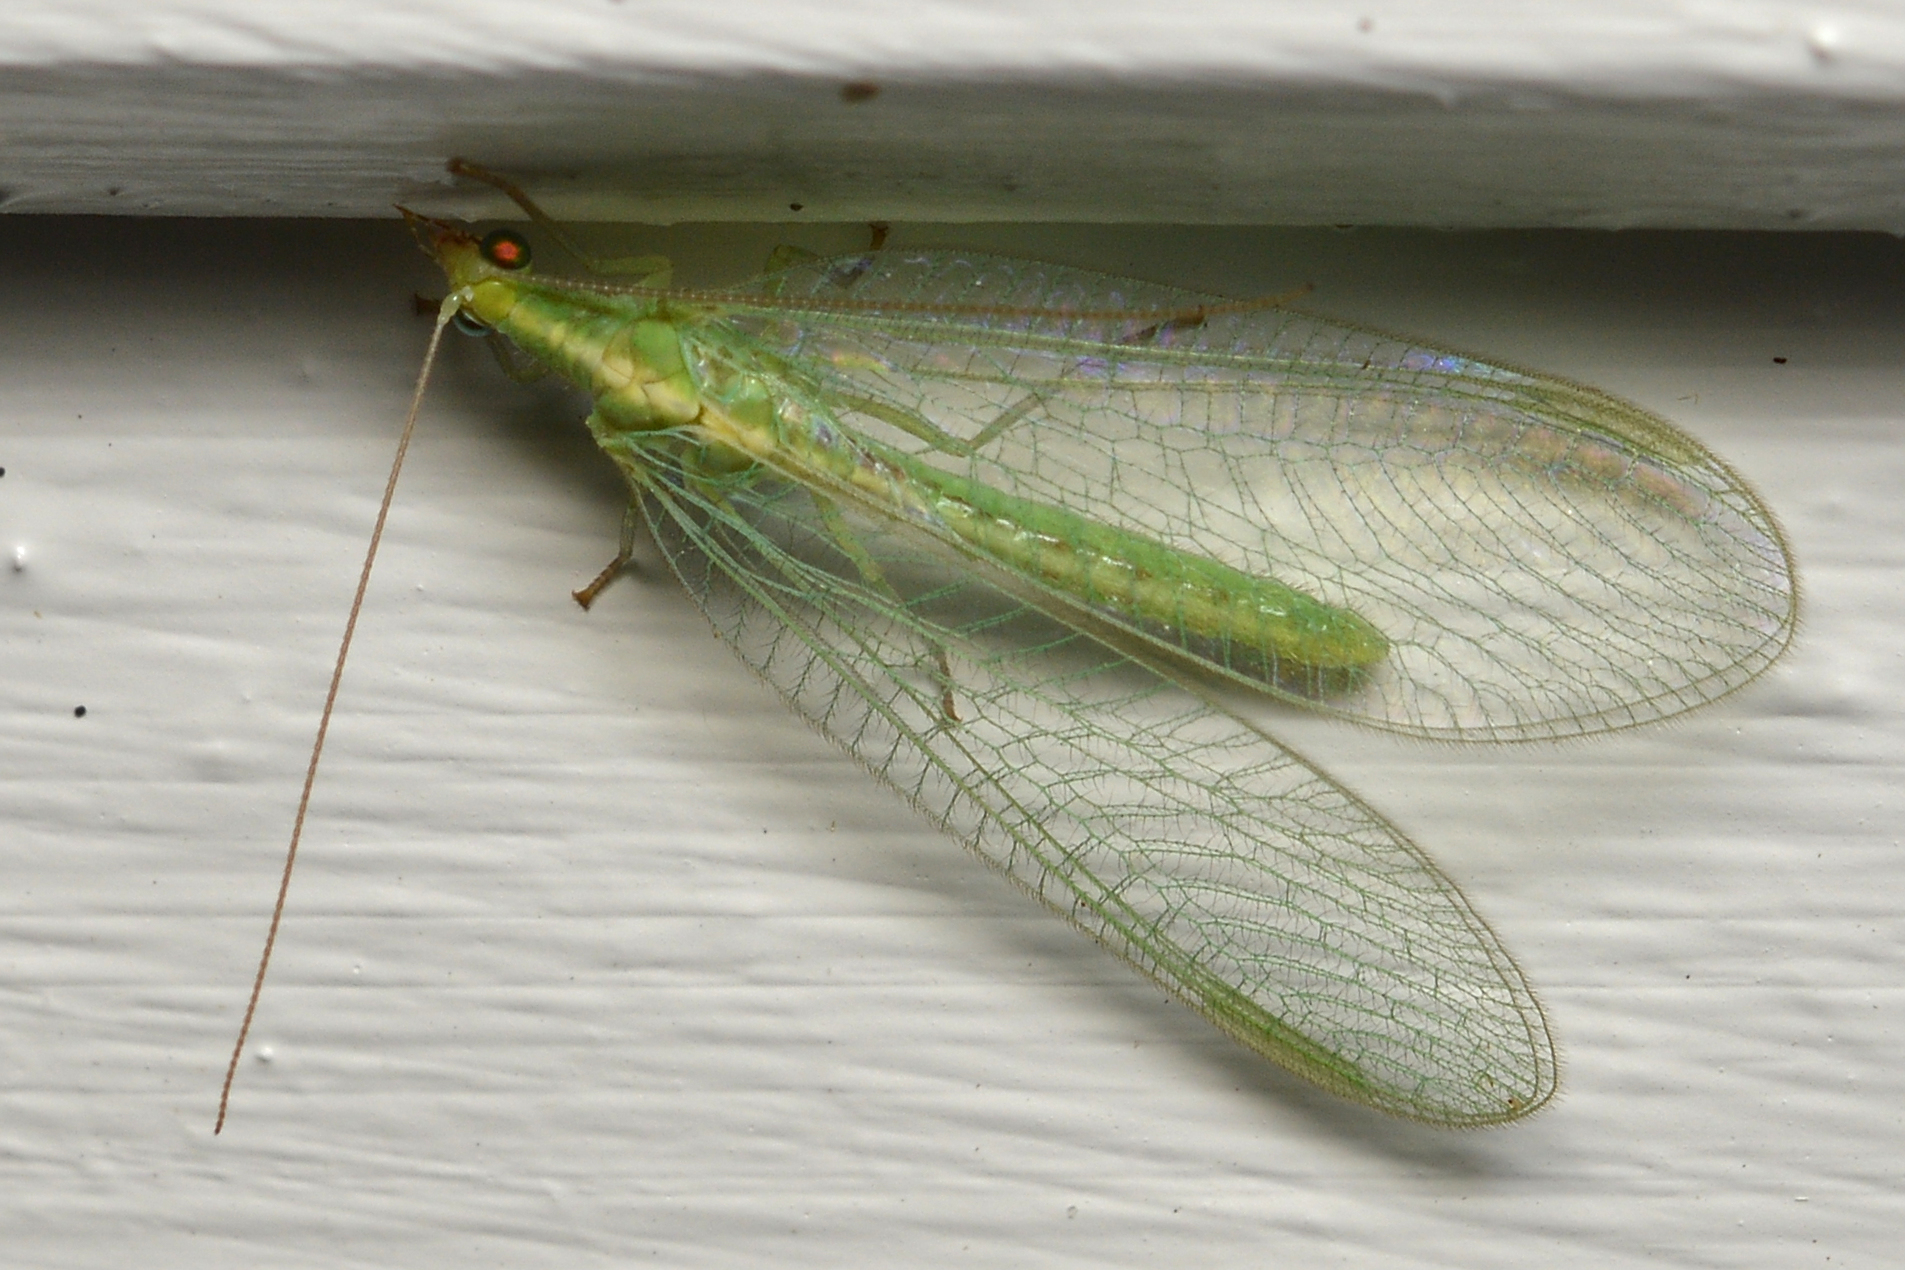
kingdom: Animalia
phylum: Arthropoda
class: Insecta
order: Neuroptera
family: Chrysopidae
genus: Chrysoperla
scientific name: Chrysoperla
